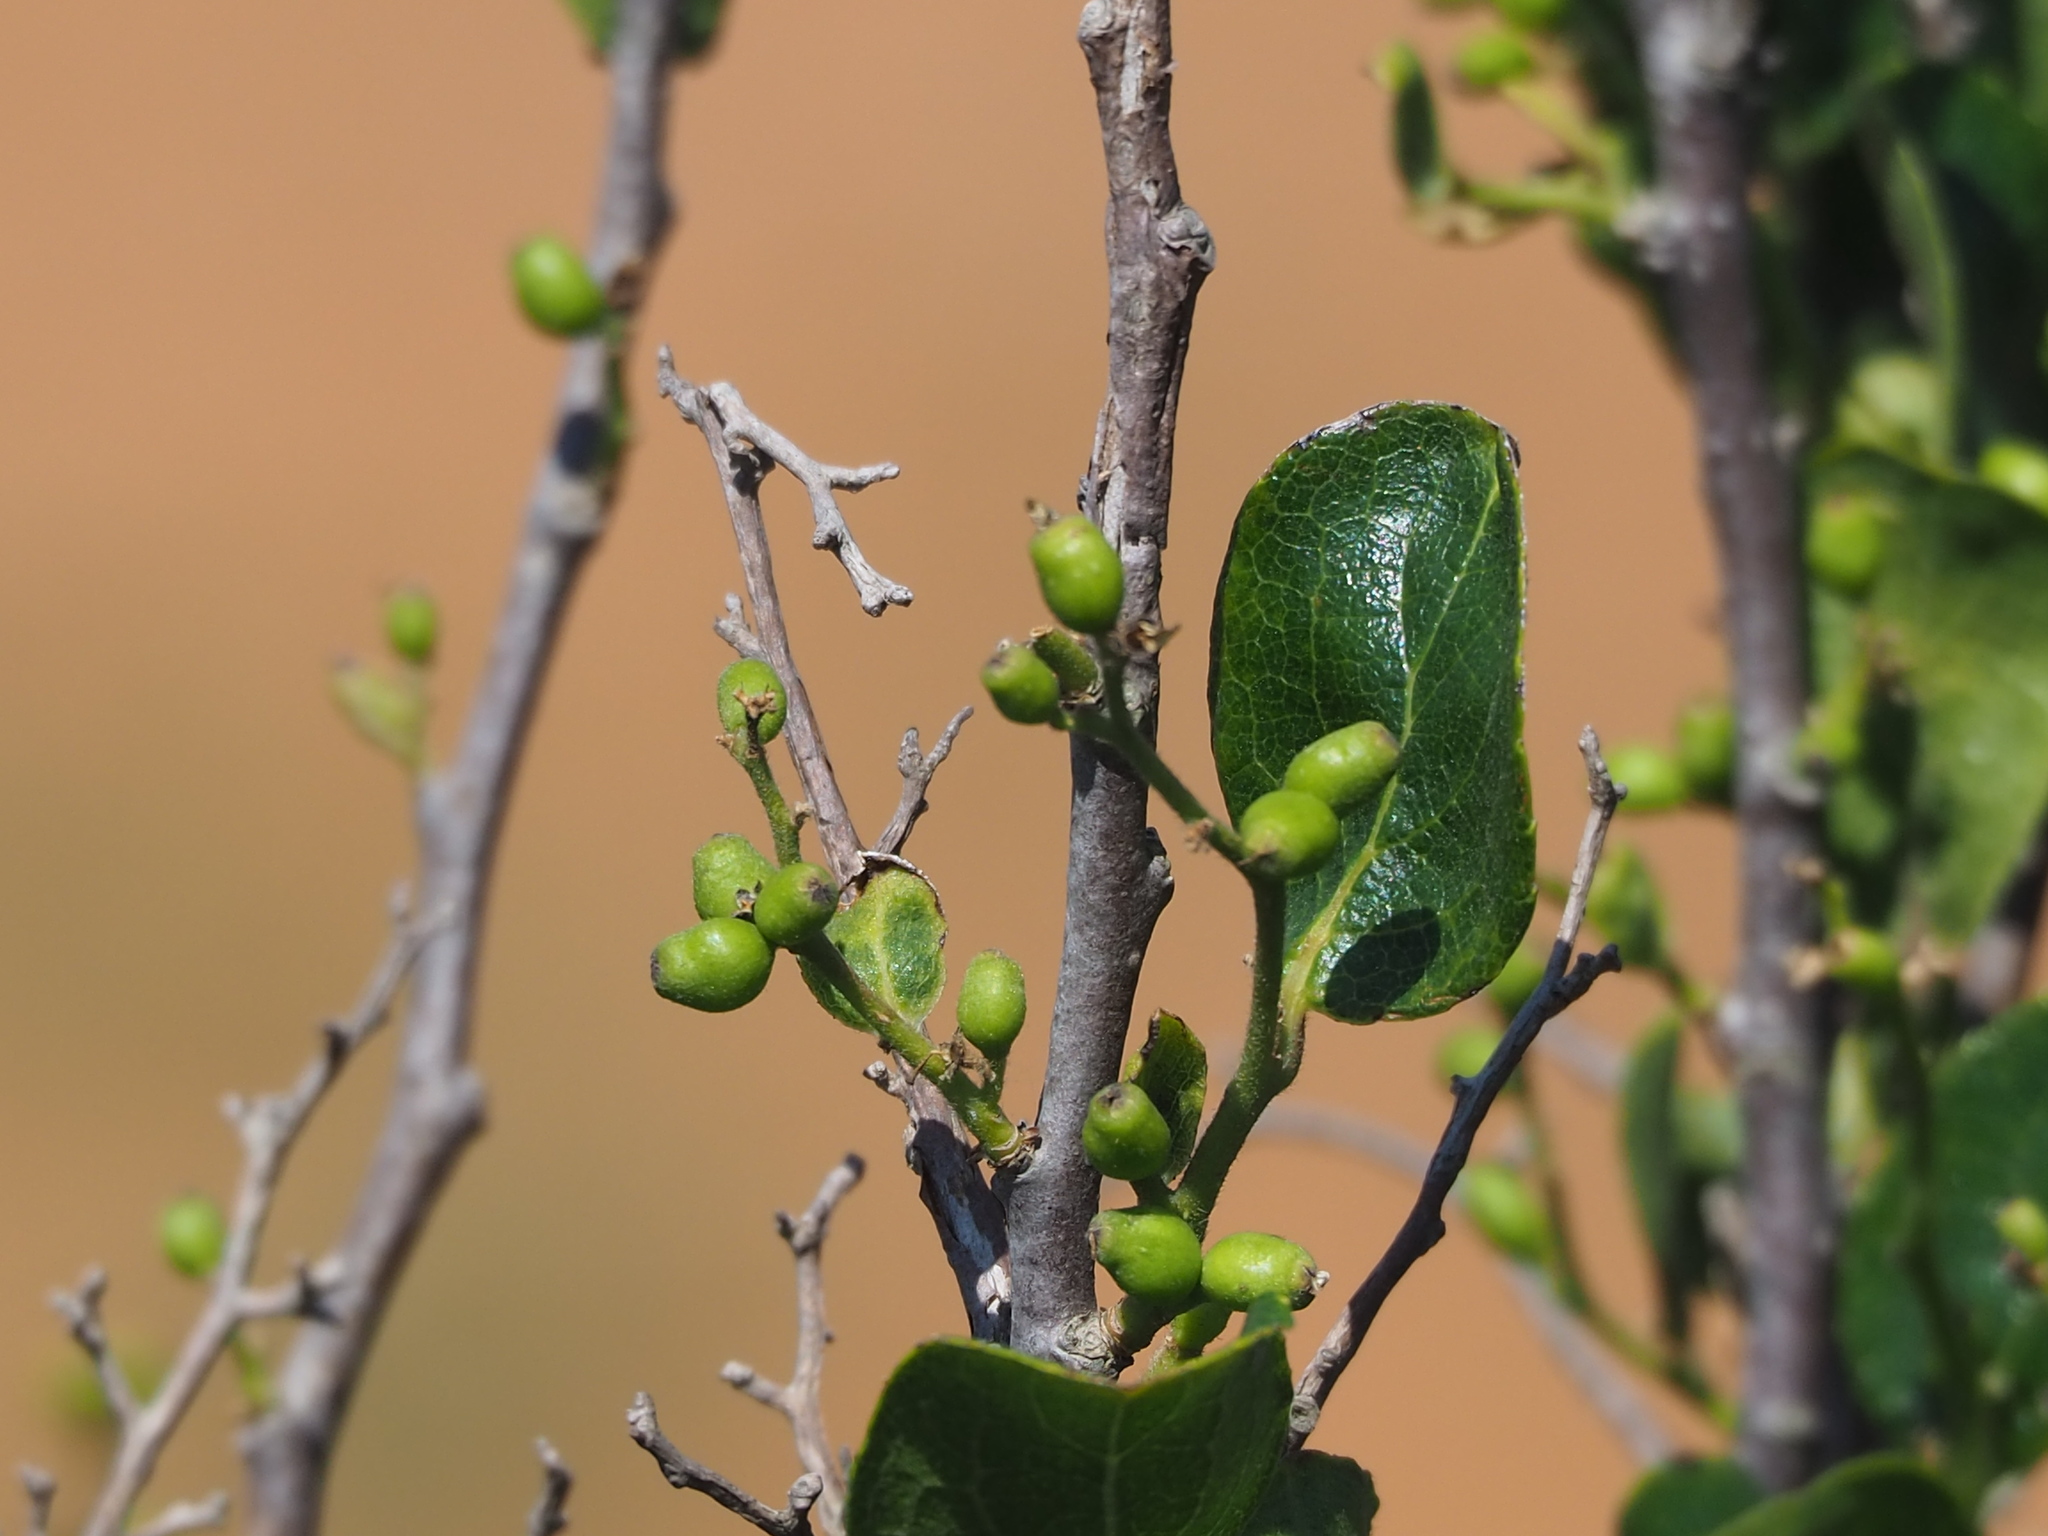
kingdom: Plantae
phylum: Tracheophyta
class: Magnoliopsida
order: Ericales
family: Symplocaceae
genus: Symplocos
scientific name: Symplocos paniculata
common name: Sapphire-berry
